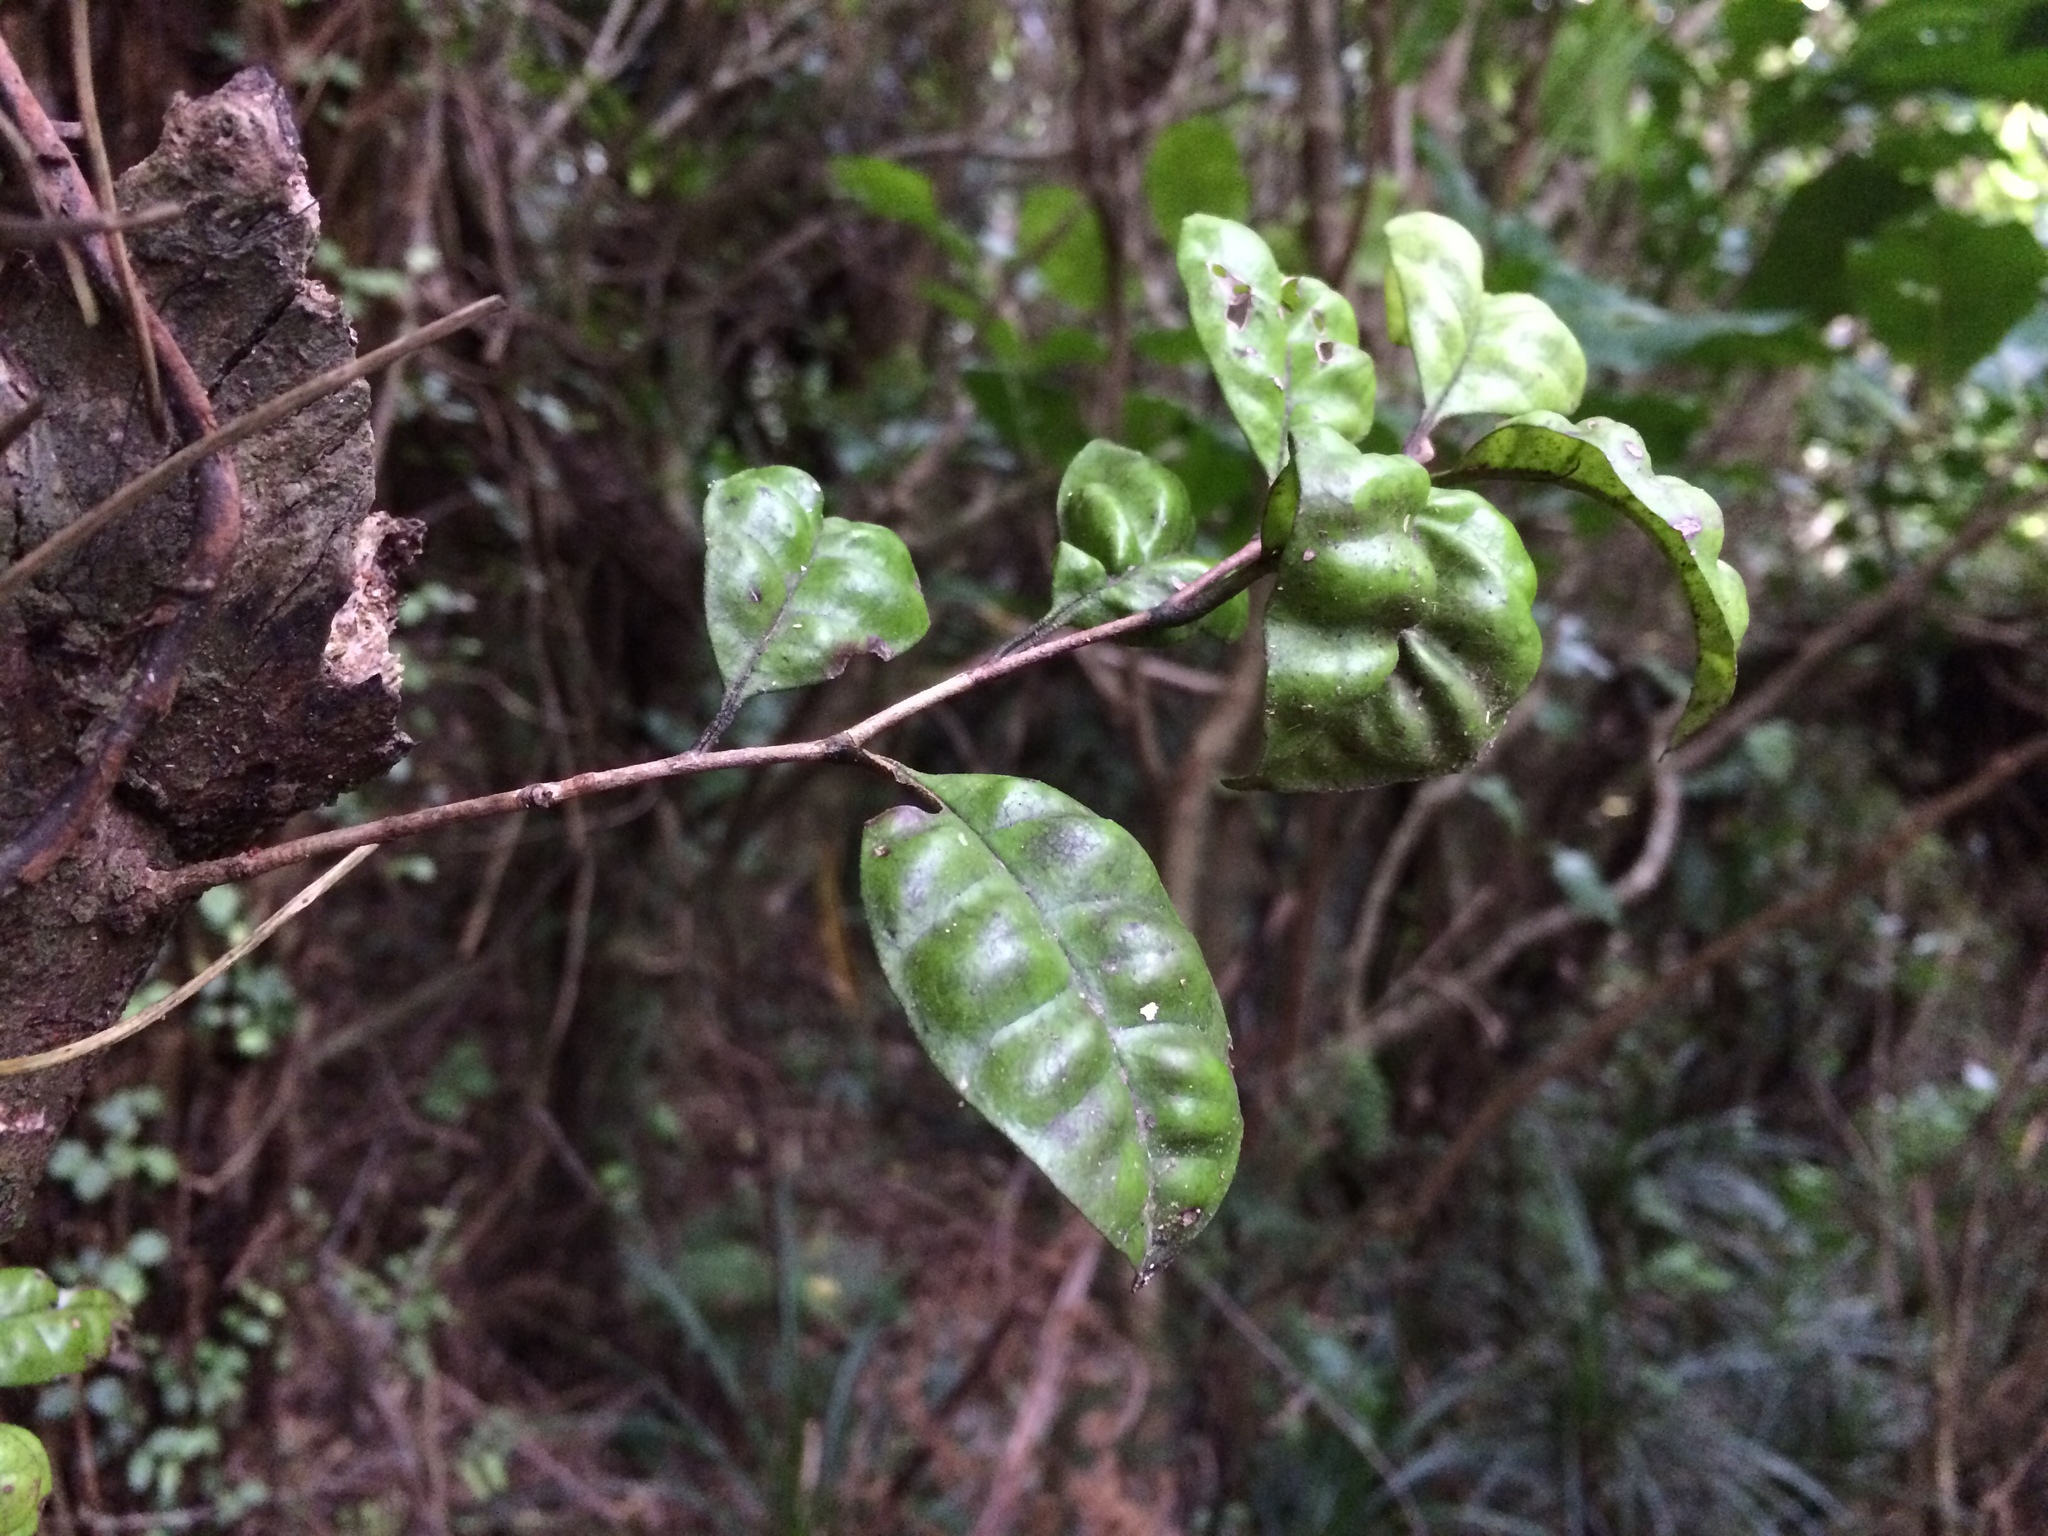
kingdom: Plantae
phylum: Tracheophyta
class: Magnoliopsida
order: Myrtales
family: Myrtaceae
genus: Lophomyrtus
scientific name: Lophomyrtus bullata
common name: Rama rama
